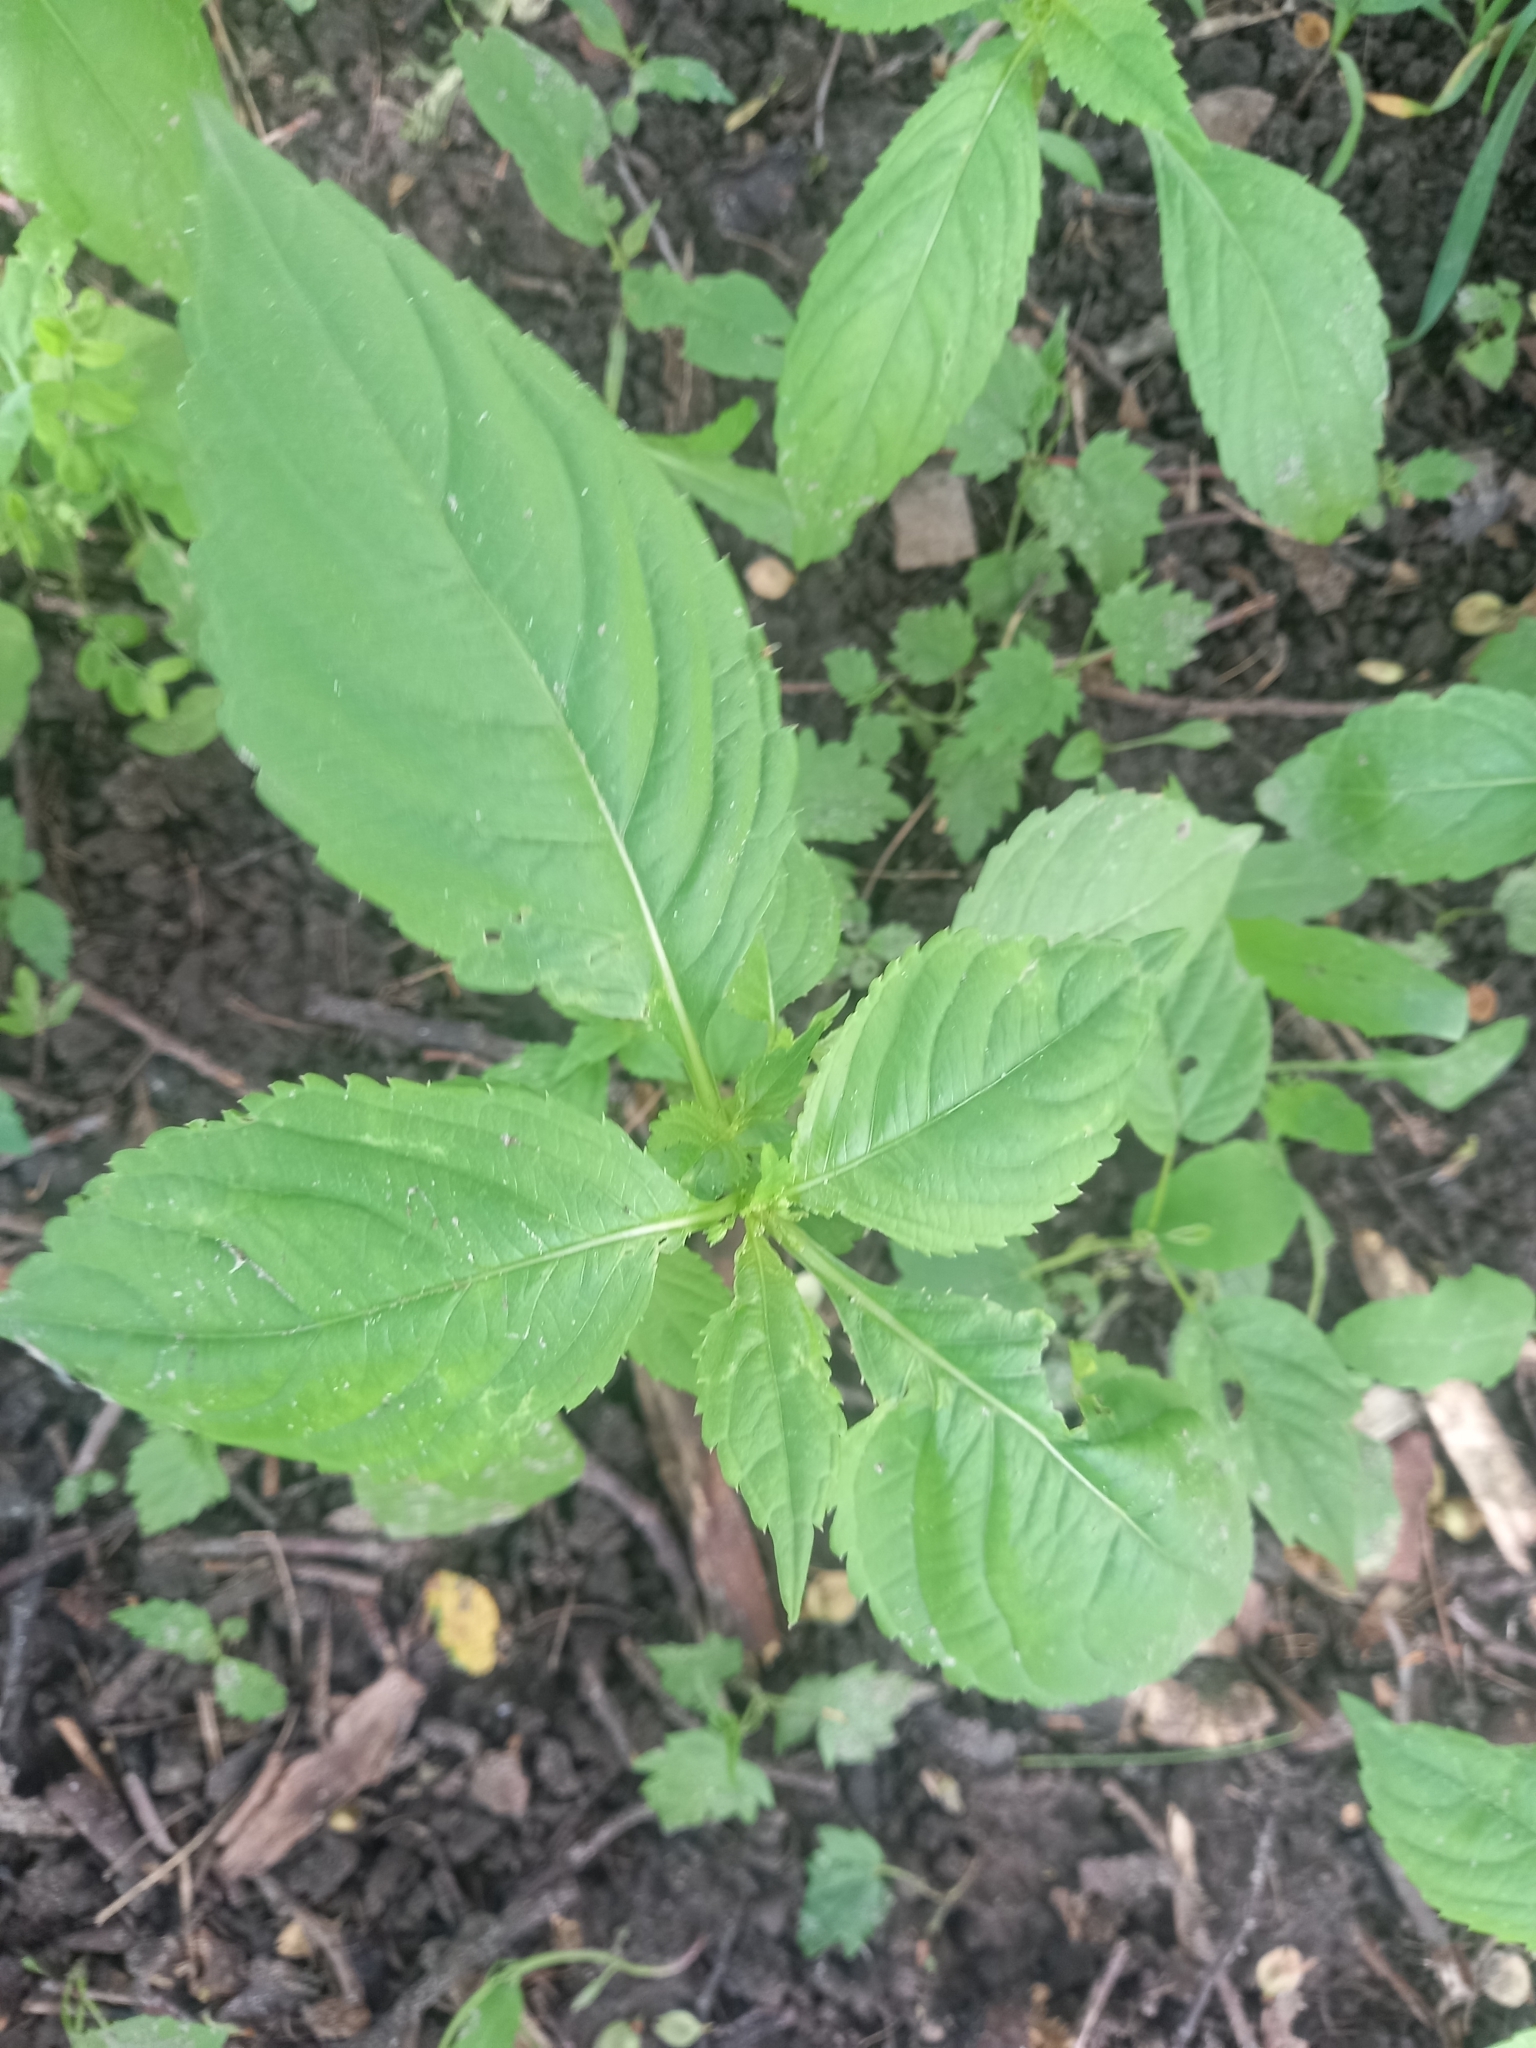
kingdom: Plantae
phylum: Tracheophyta
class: Magnoliopsida
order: Ericales
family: Balsaminaceae
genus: Impatiens
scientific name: Impatiens parviflora
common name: Small balsam
